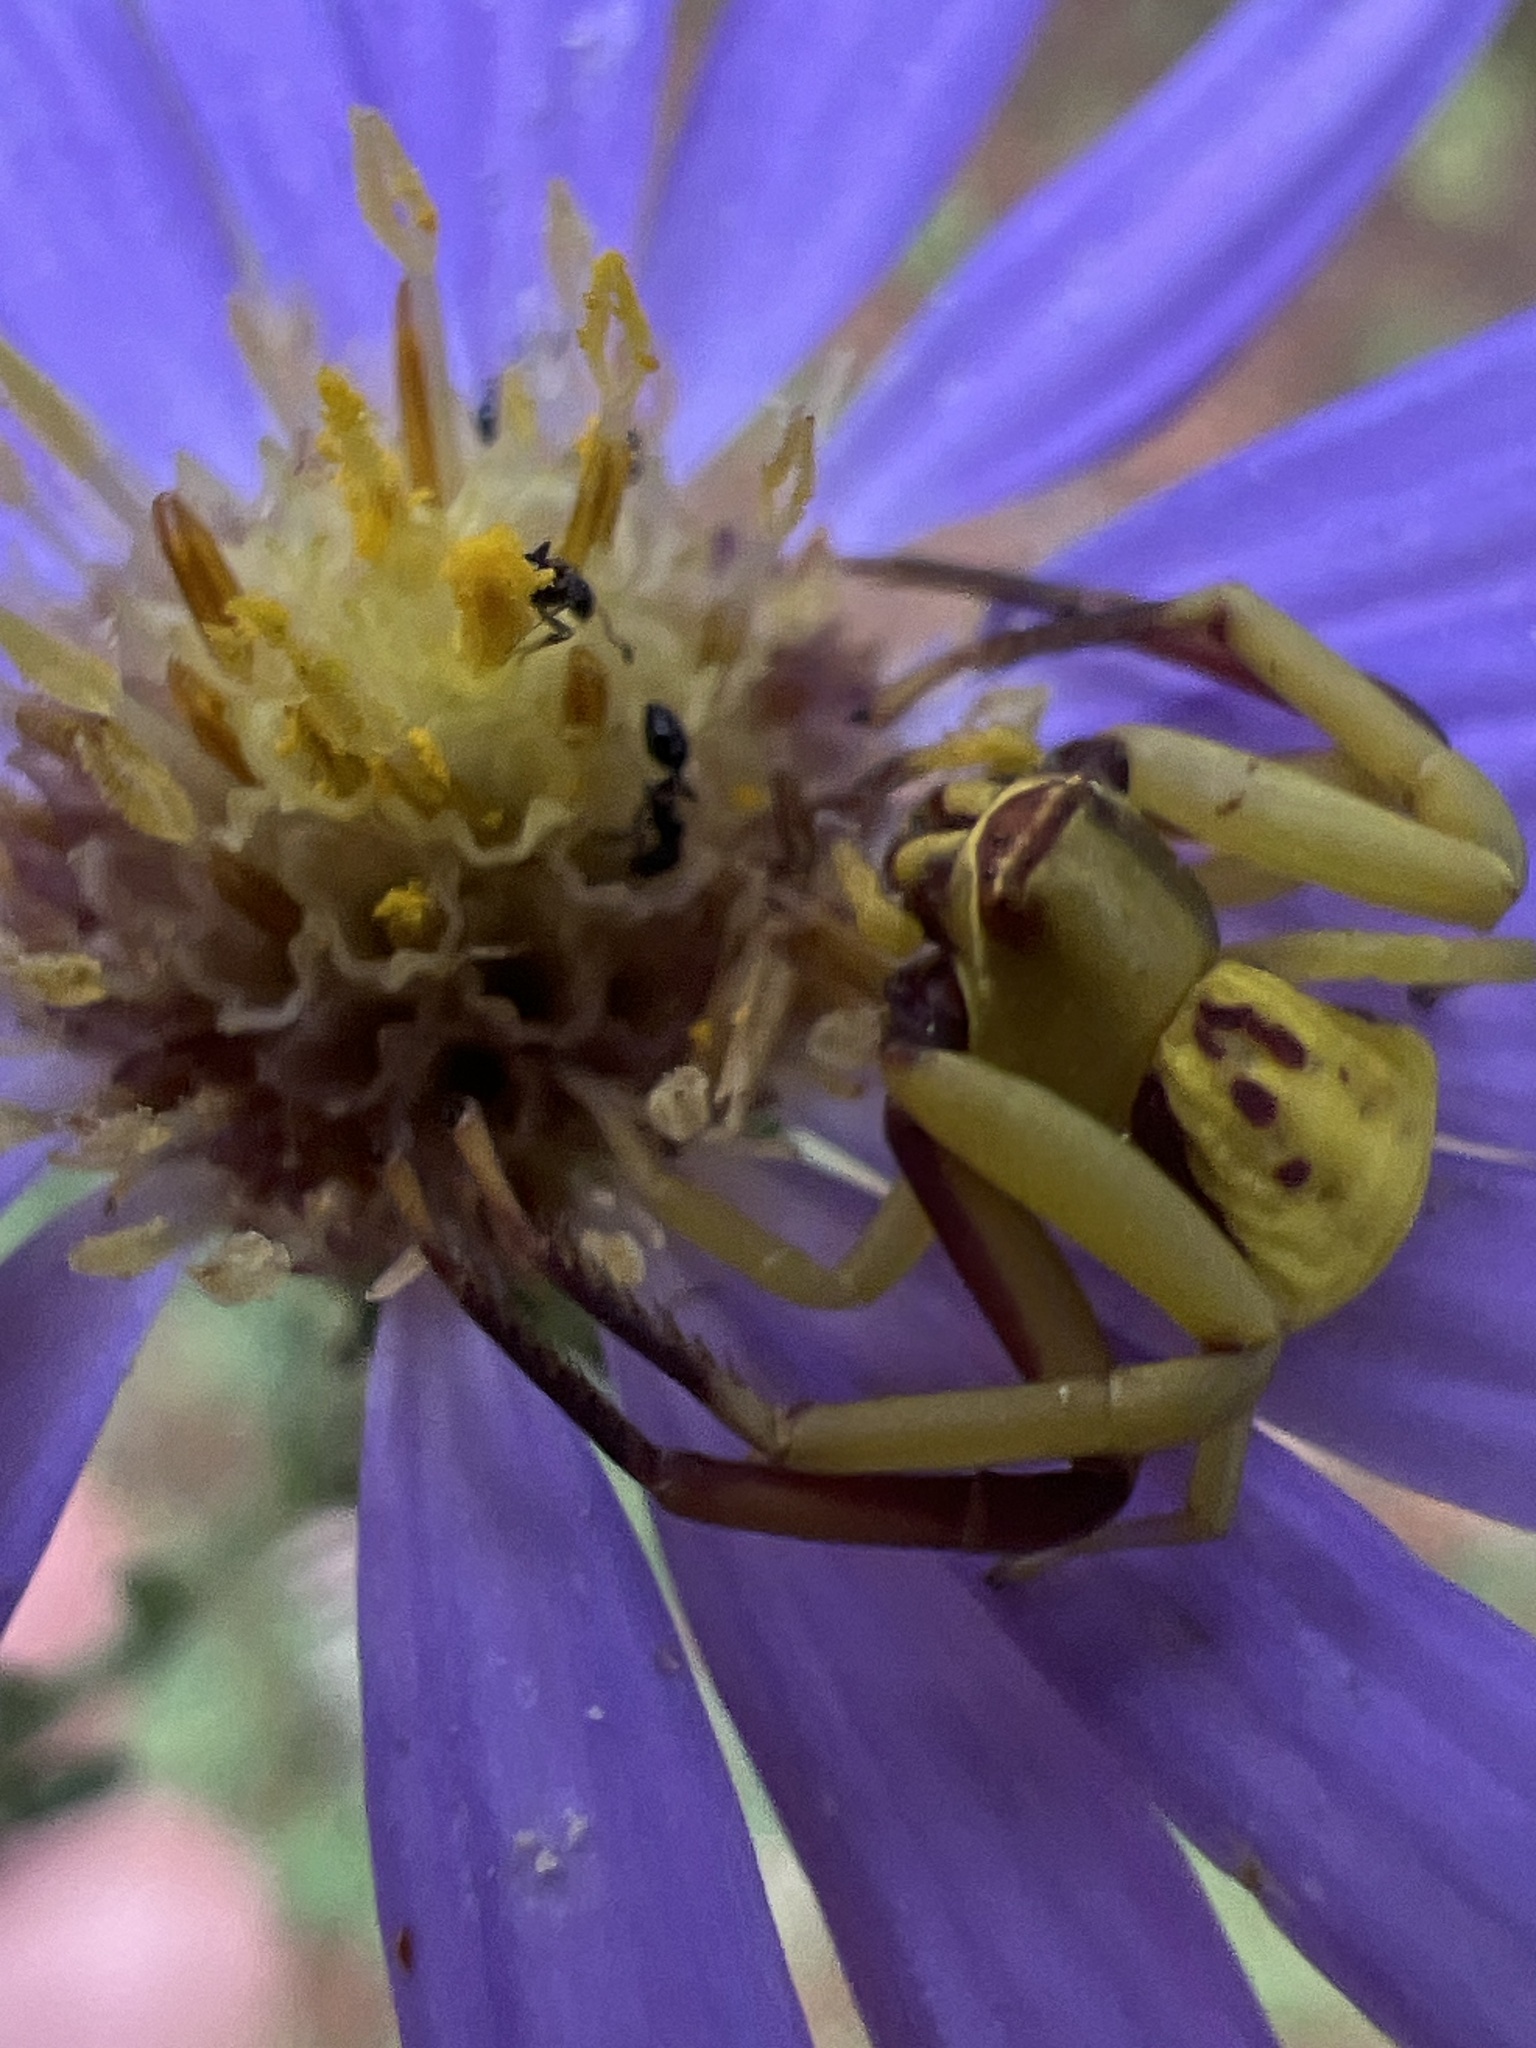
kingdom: Animalia
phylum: Arthropoda
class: Arachnida
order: Araneae
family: Thomisidae
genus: Misumenoides
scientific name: Misumenoides formosipes
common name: White-banded crab spider
